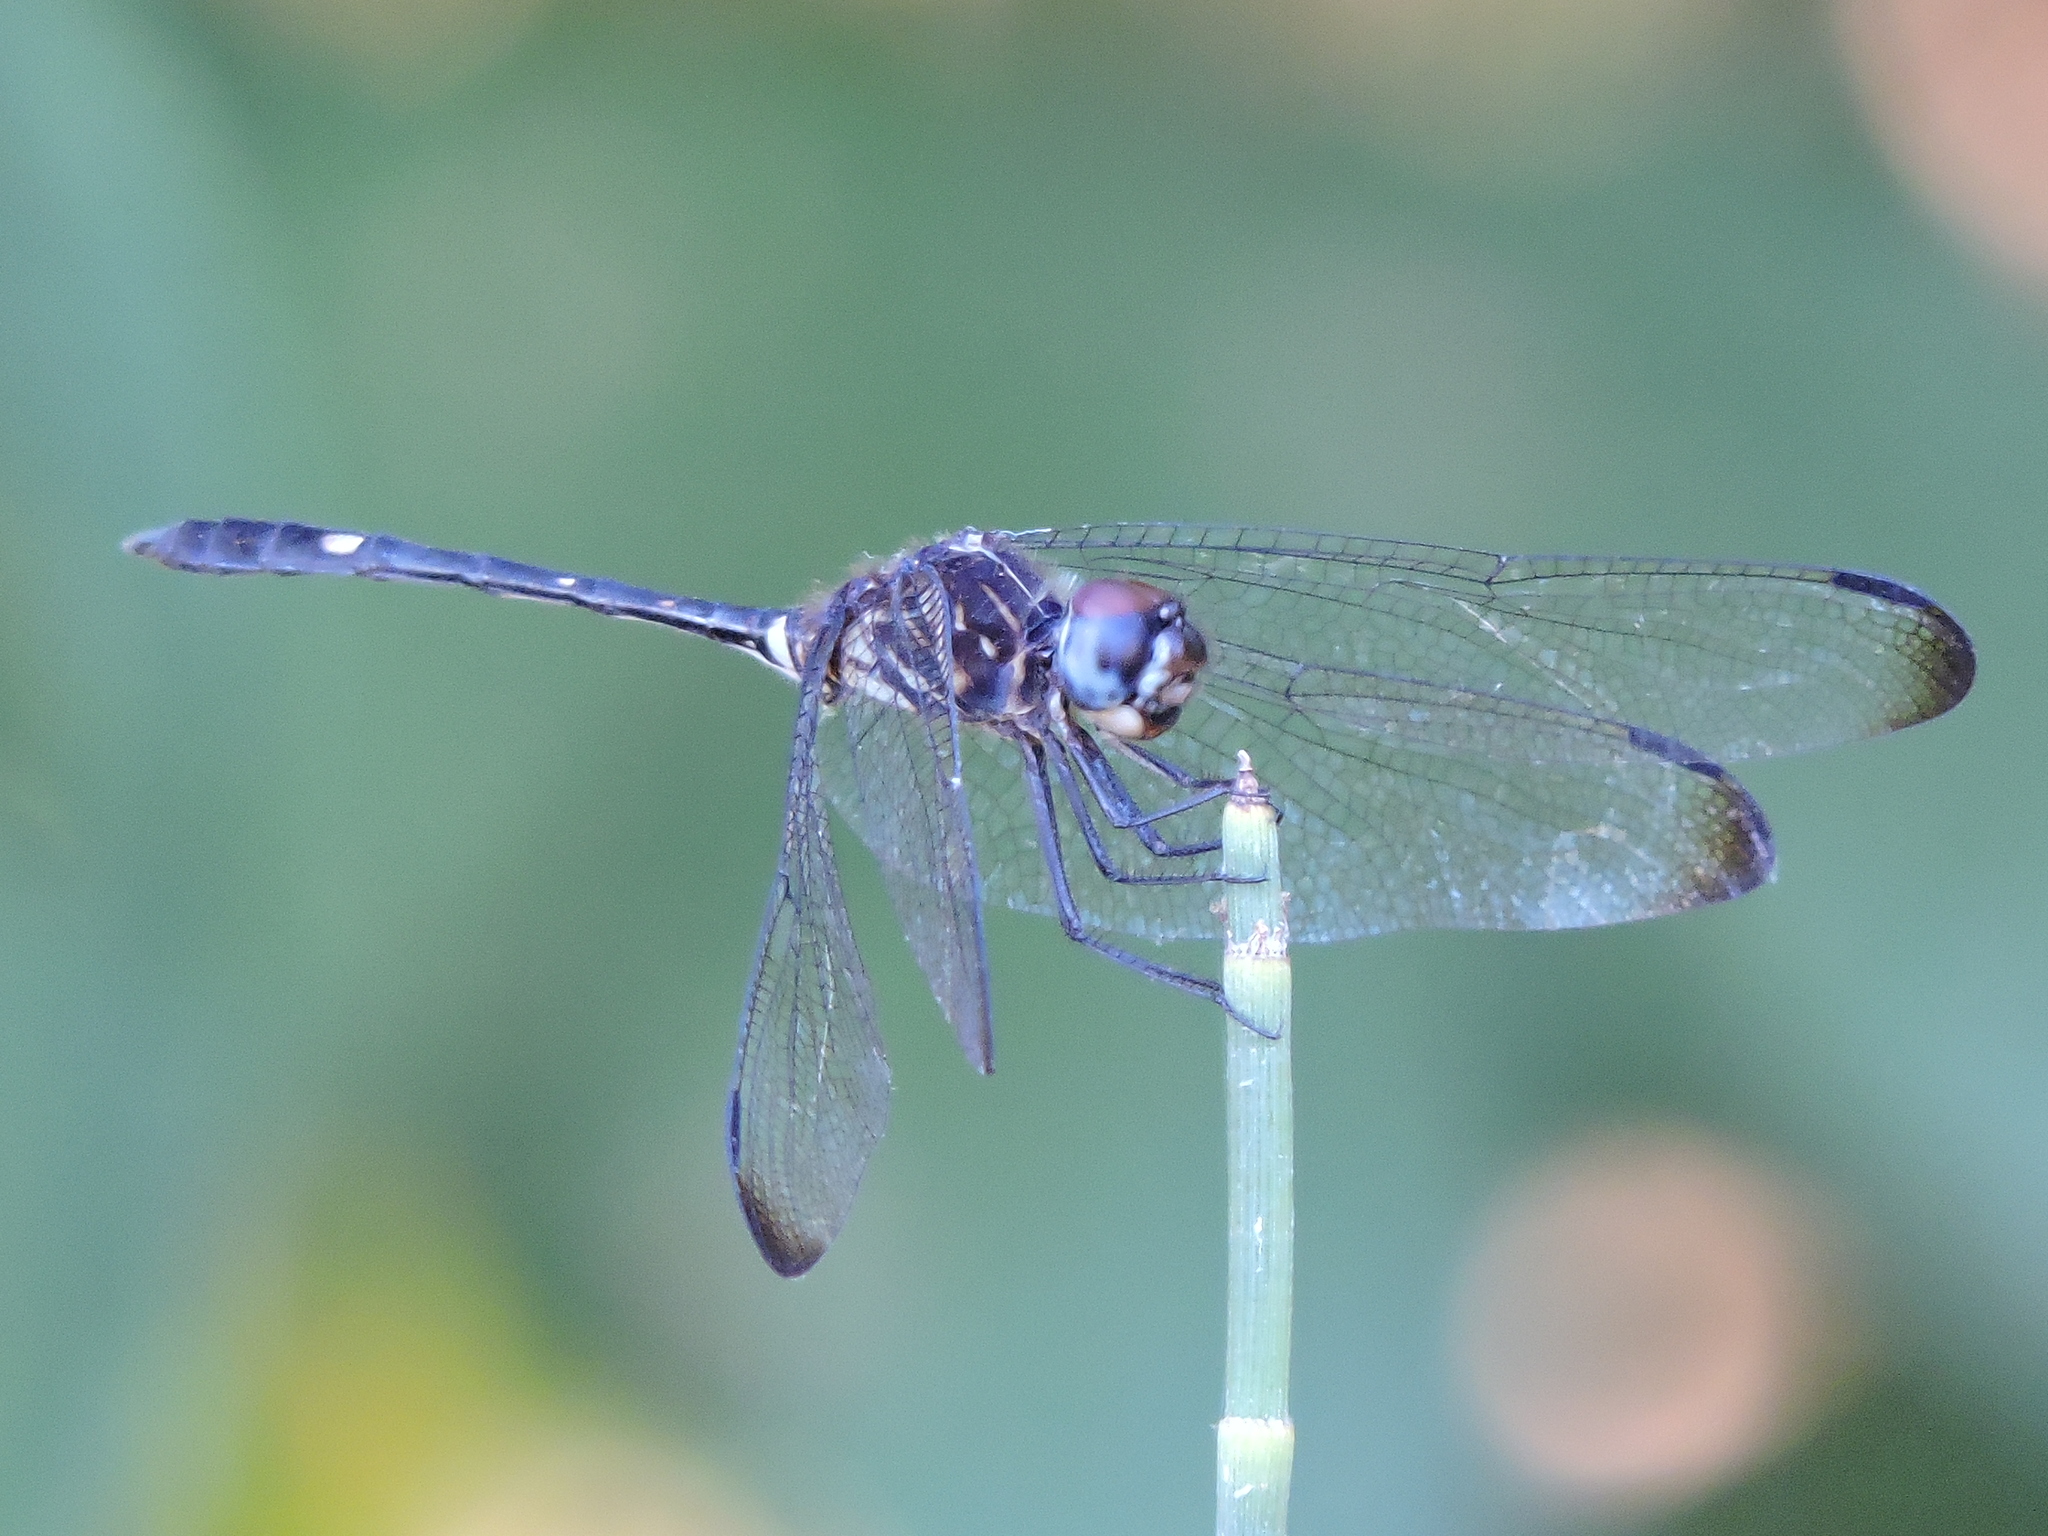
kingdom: Animalia
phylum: Arthropoda
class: Insecta
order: Odonata
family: Libellulidae
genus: Dythemis
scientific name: Dythemis velox
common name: Swift setwing
